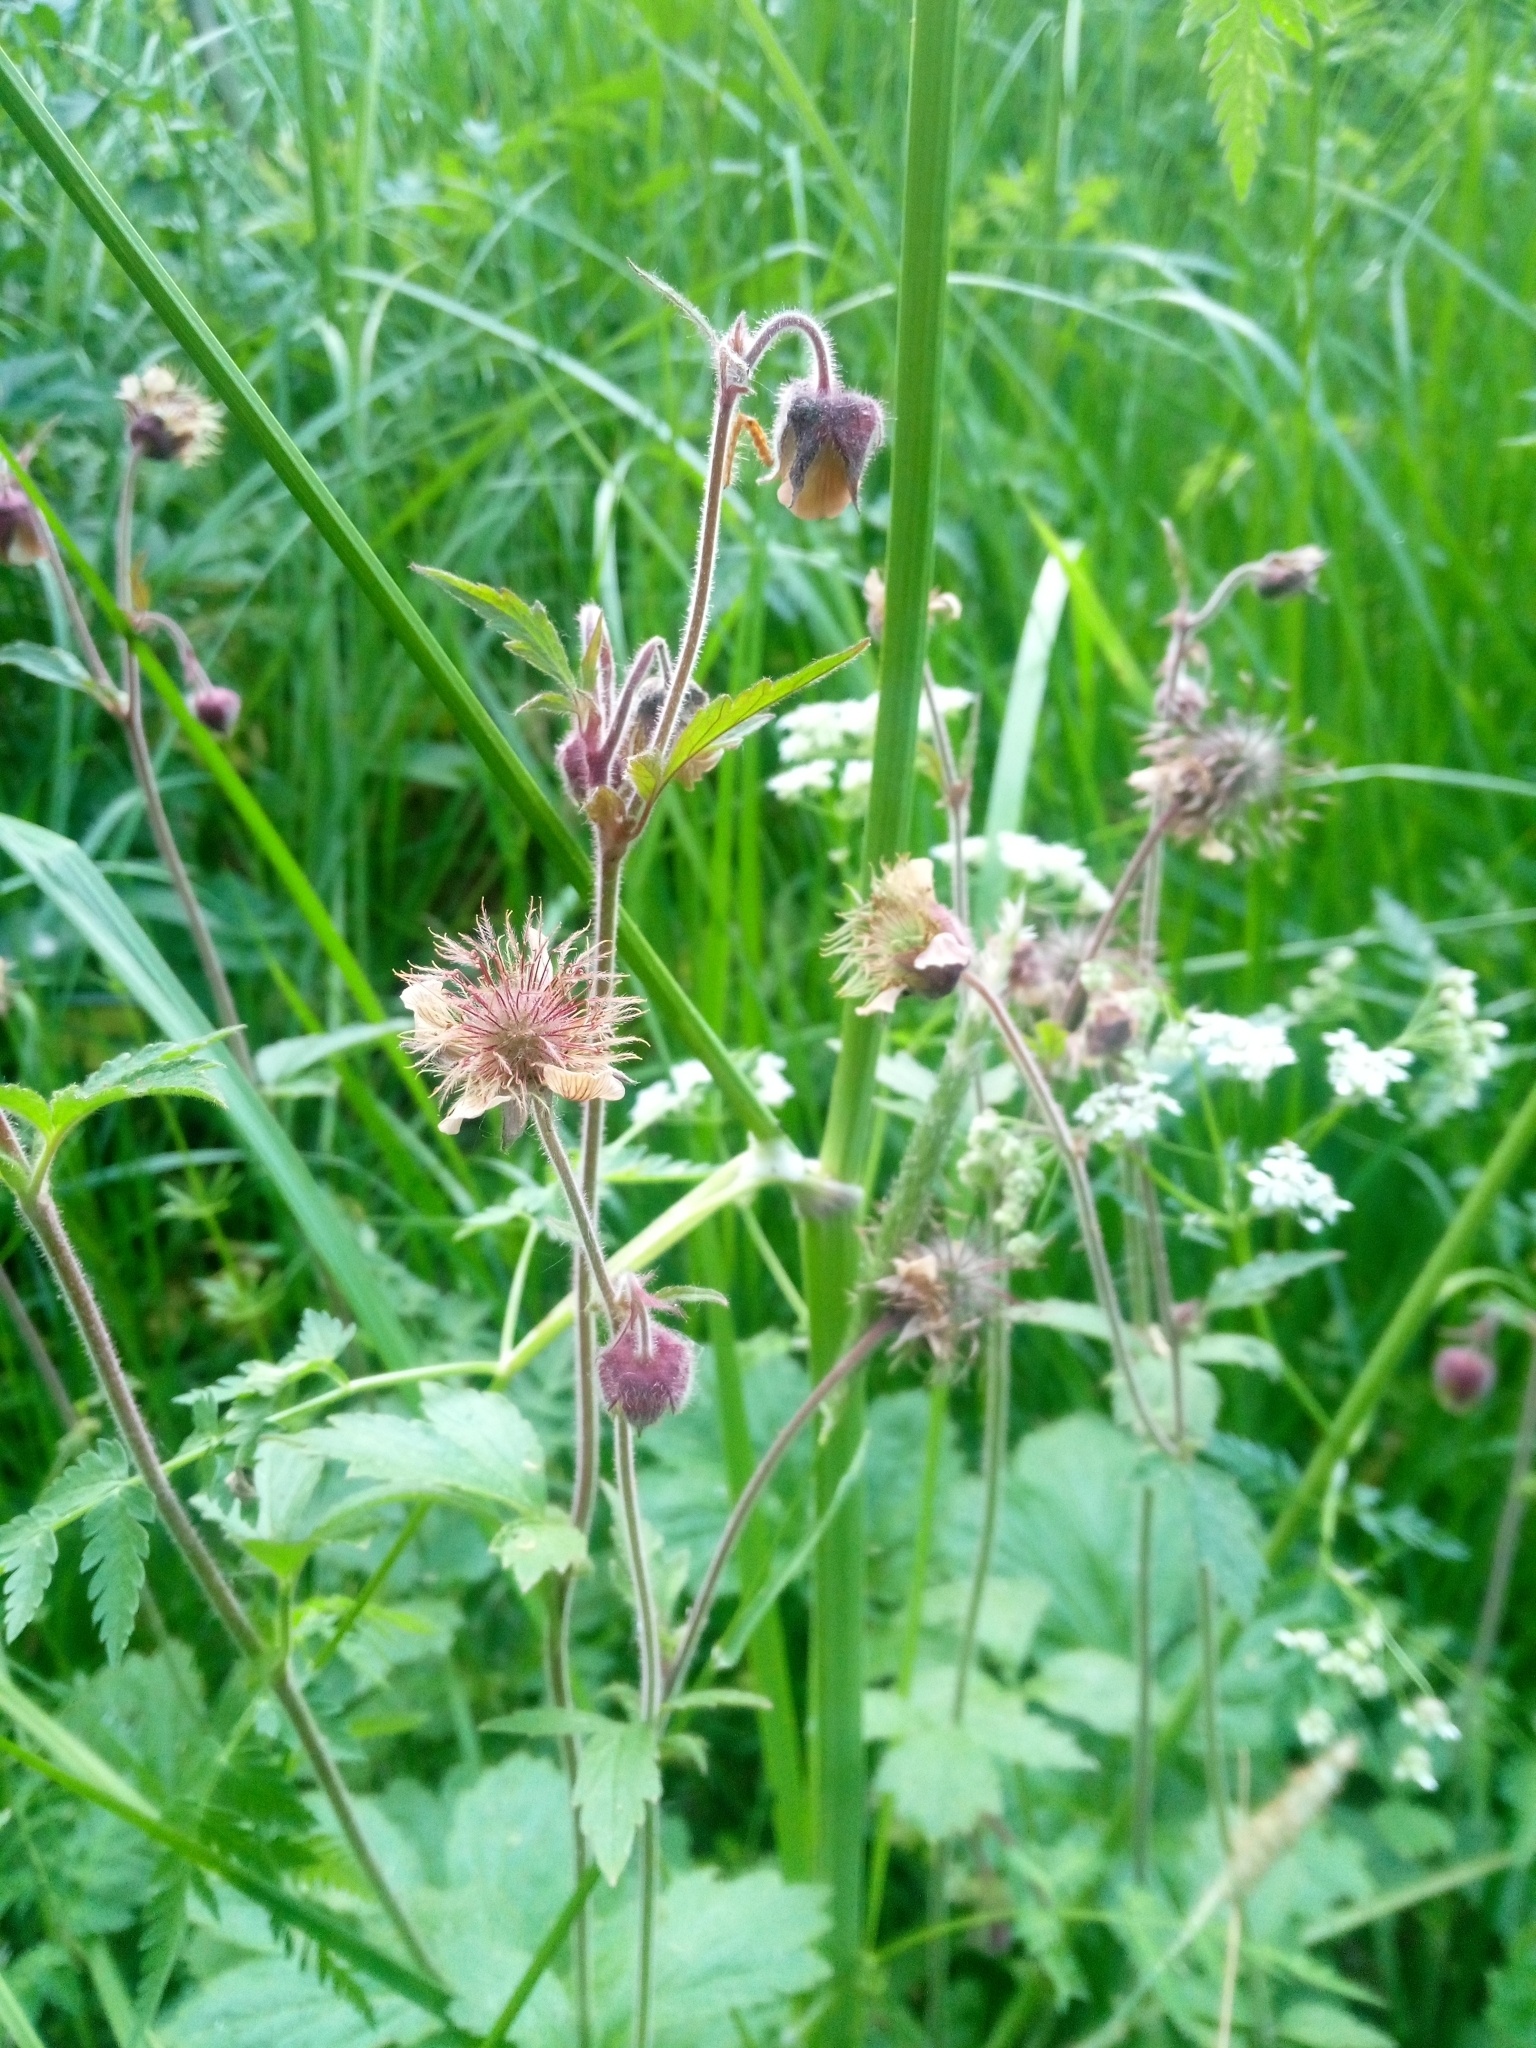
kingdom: Plantae
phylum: Tracheophyta
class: Magnoliopsida
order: Rosales
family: Rosaceae
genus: Geum
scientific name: Geum rivale
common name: Water avens
